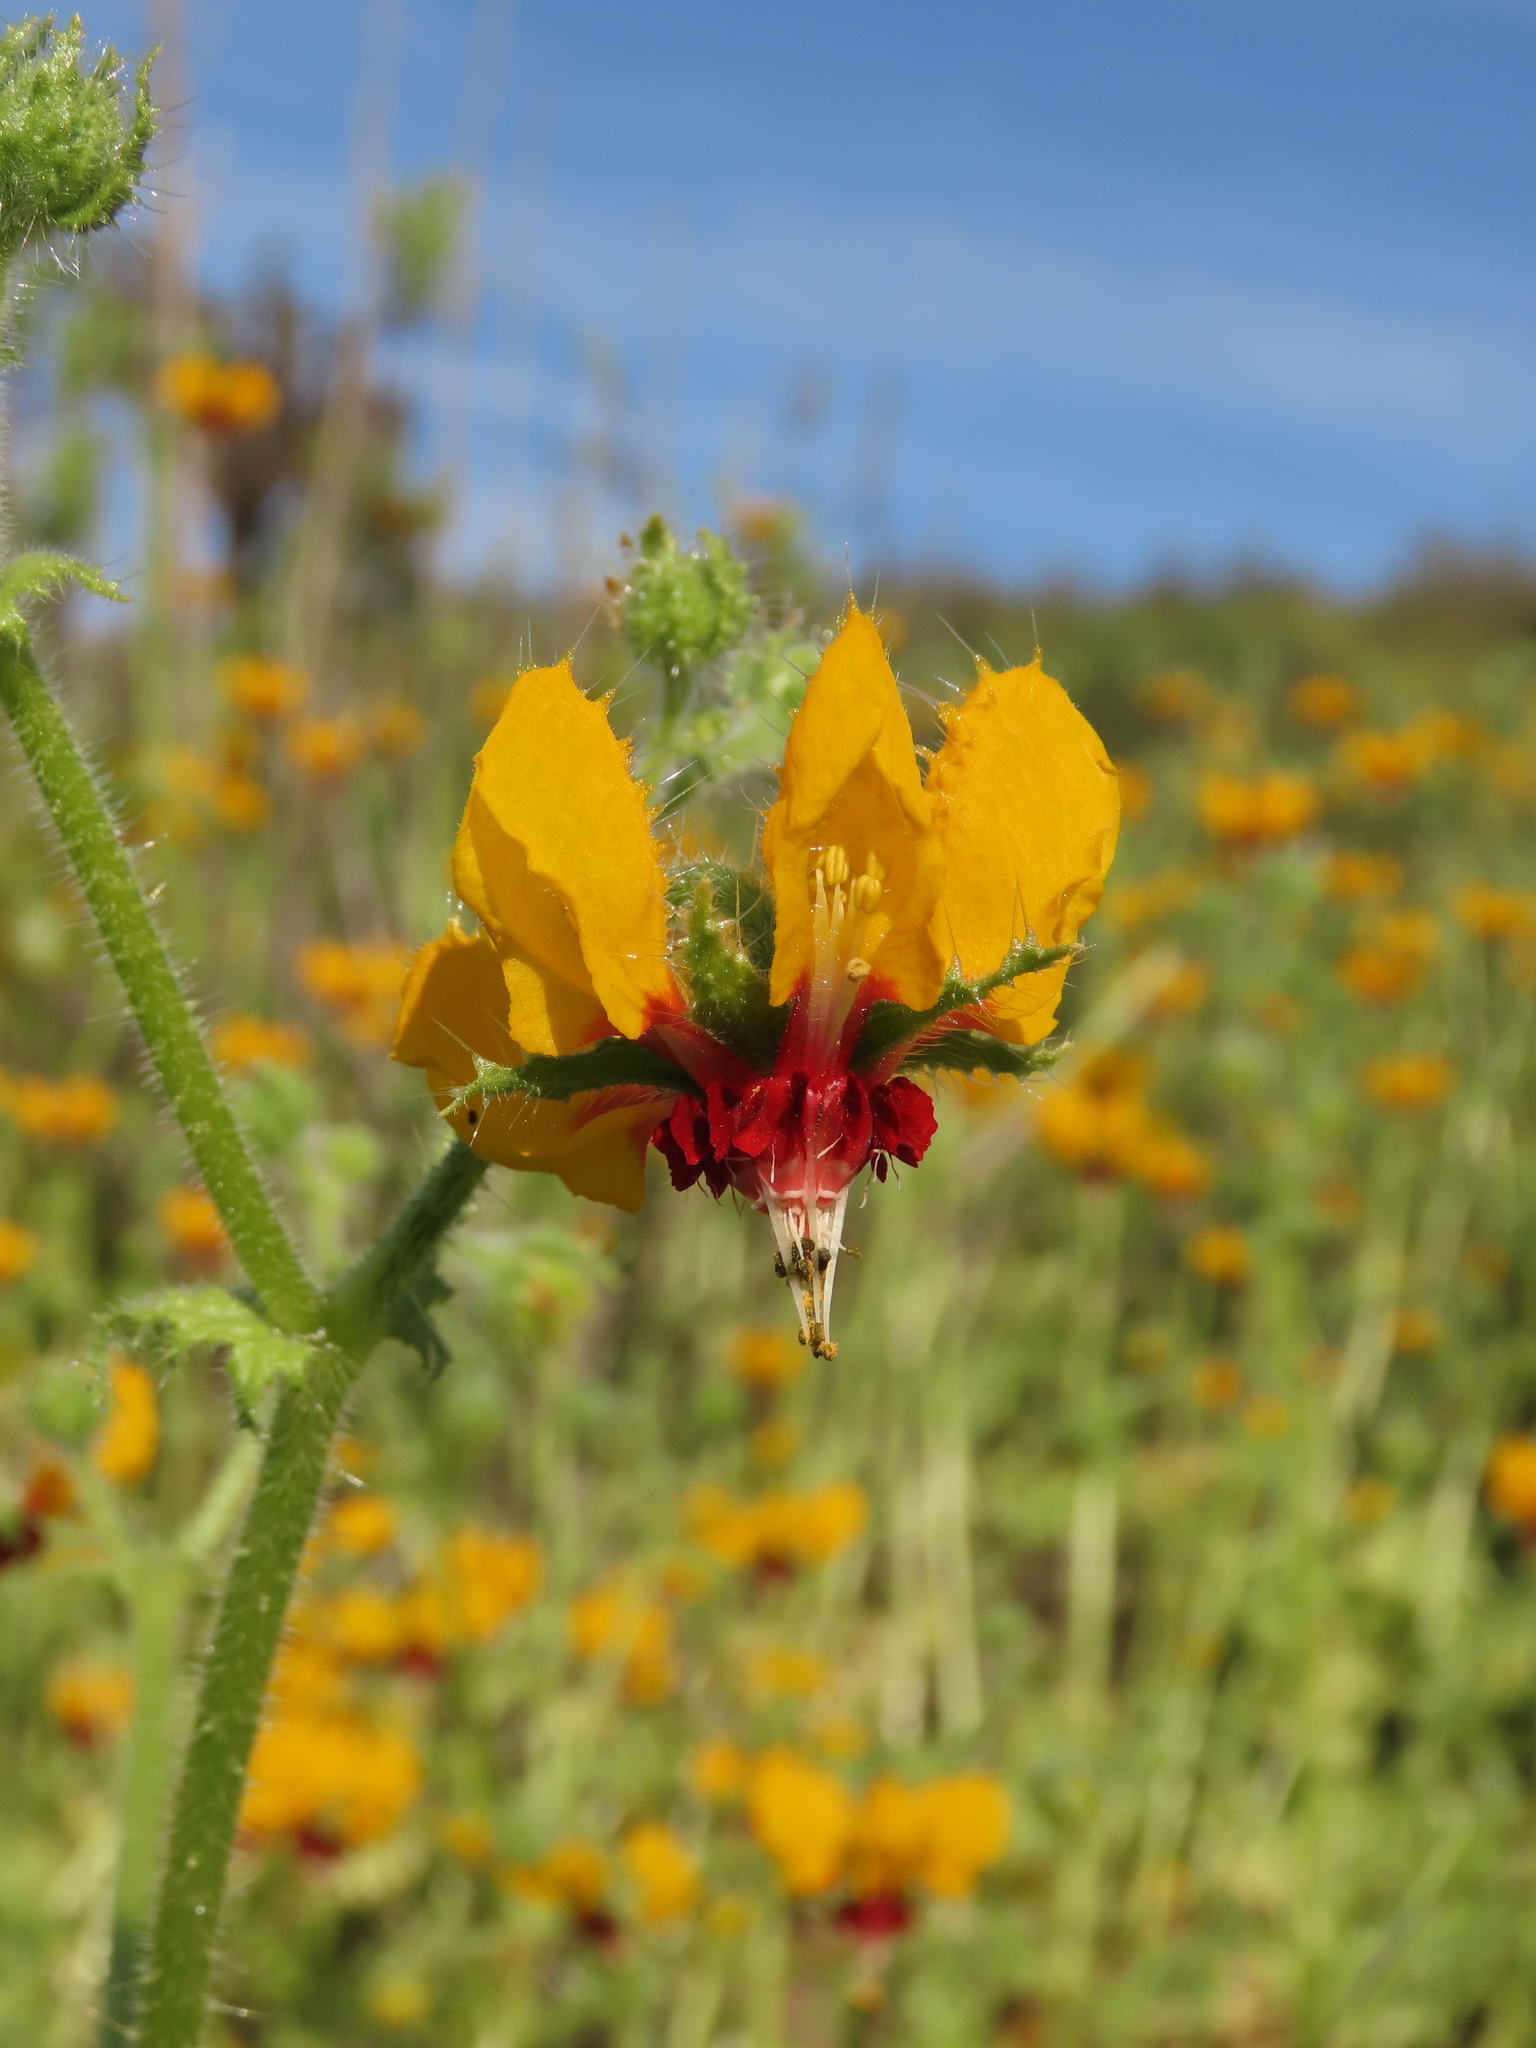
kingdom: Plantae
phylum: Tracheophyta
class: Magnoliopsida
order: Cornales
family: Loasaceae
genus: Loasa
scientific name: Loasa tricolor
